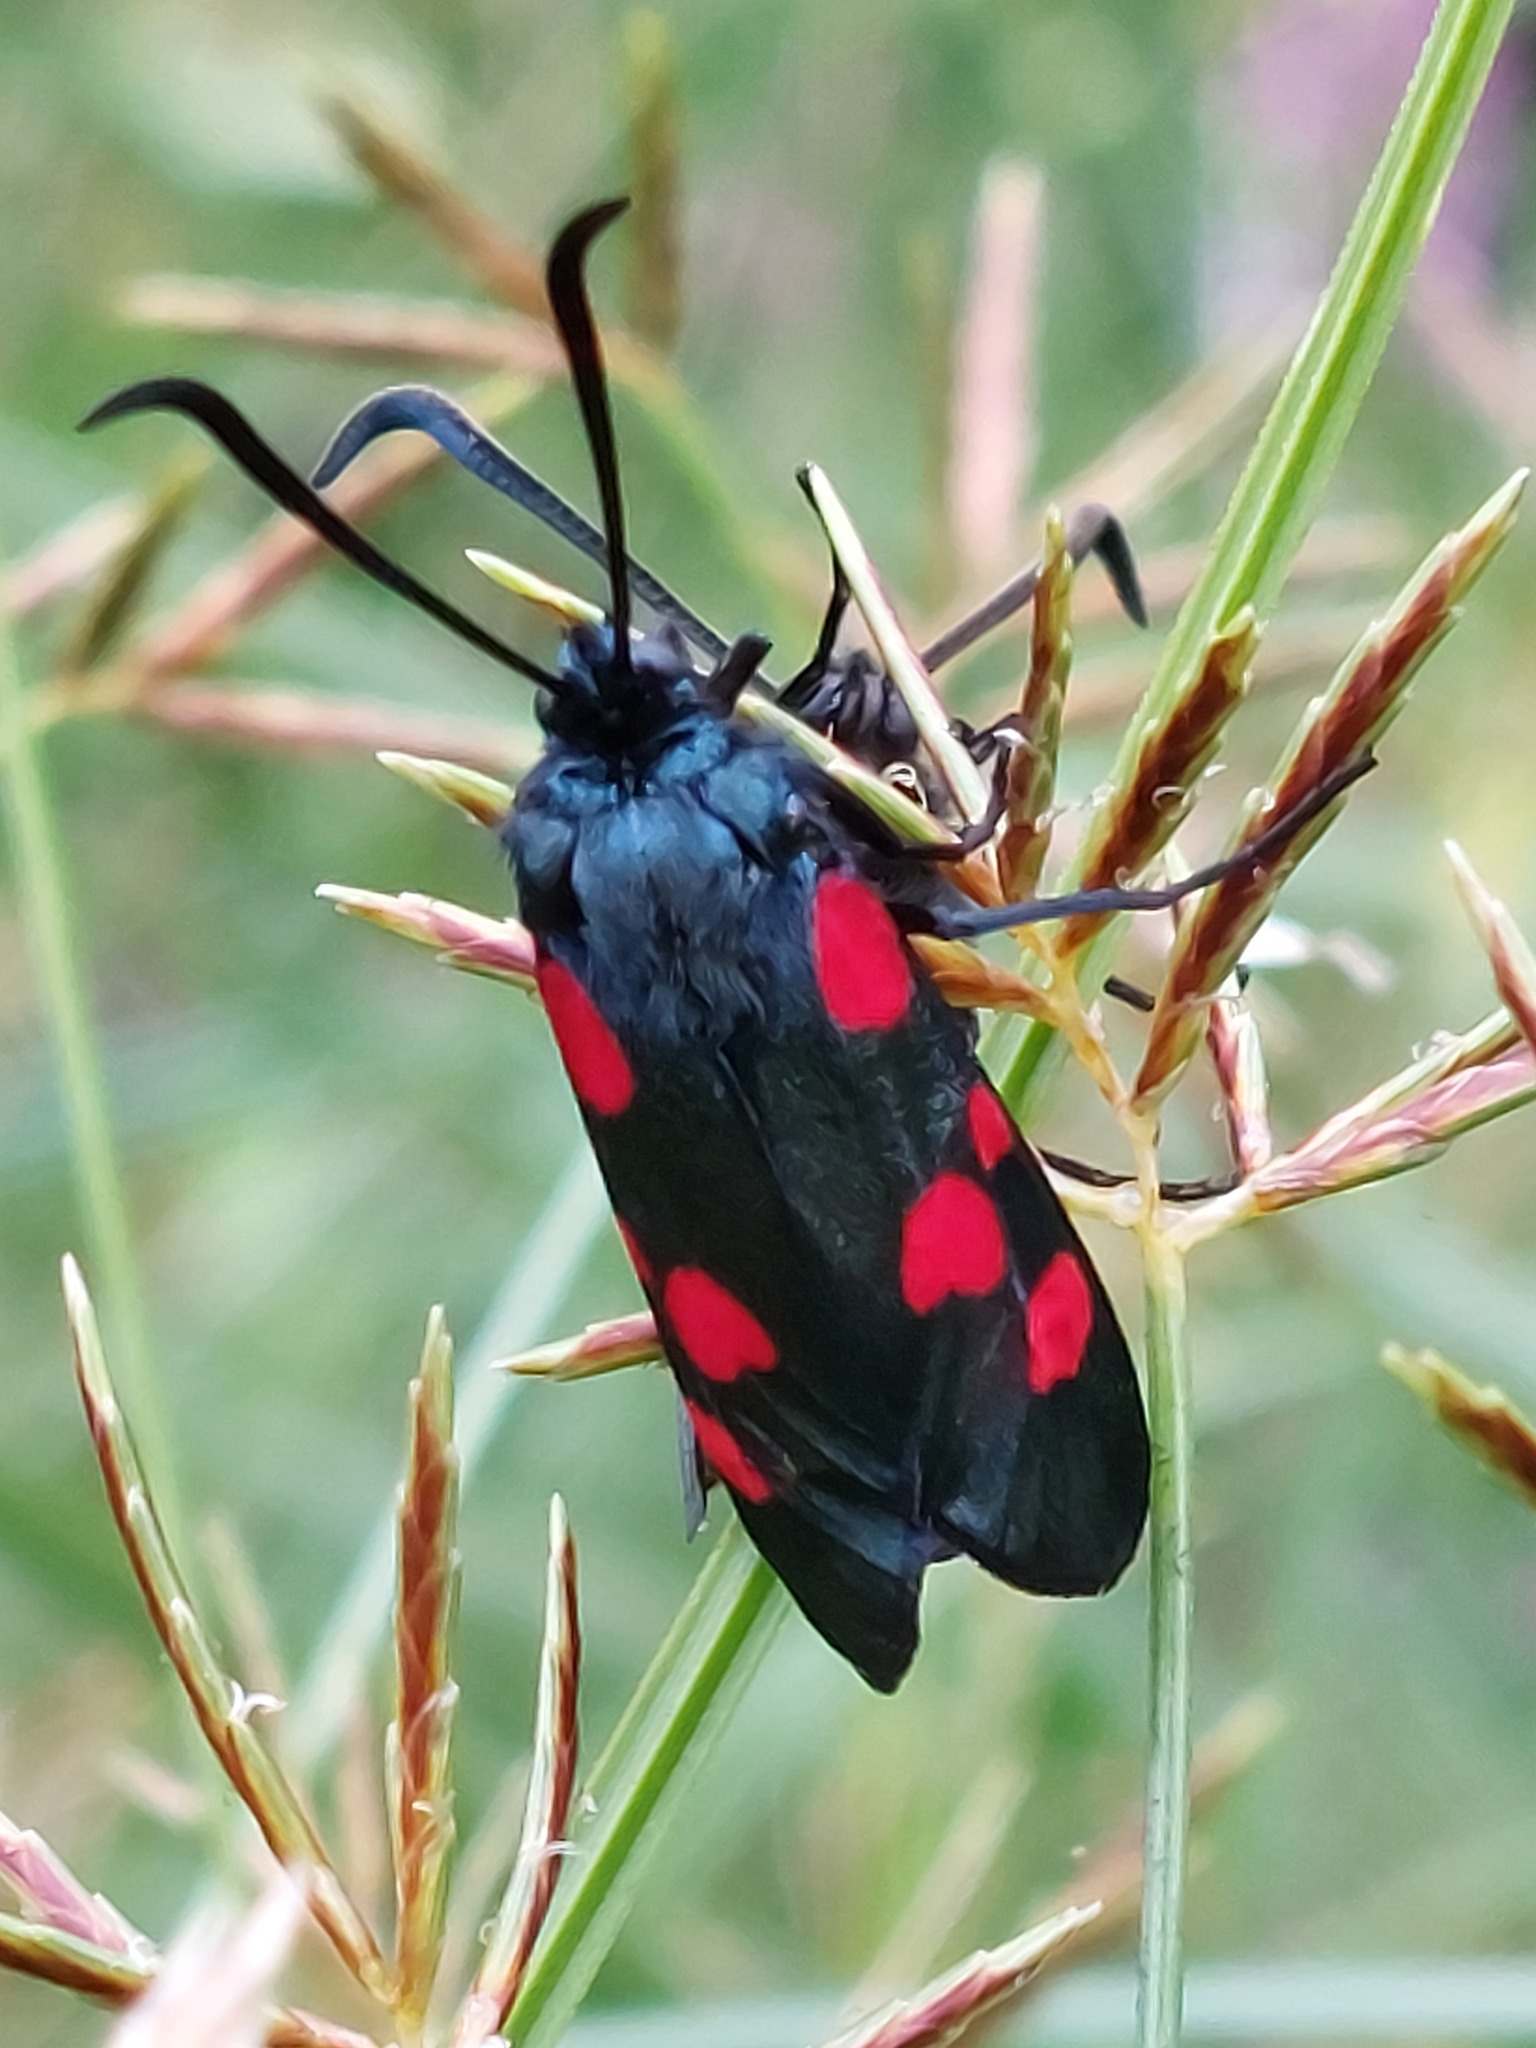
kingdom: Animalia
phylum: Arthropoda
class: Insecta
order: Lepidoptera
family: Zygaenidae
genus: Zygaena
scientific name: Zygaena trifolii
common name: Five-spot burnet
